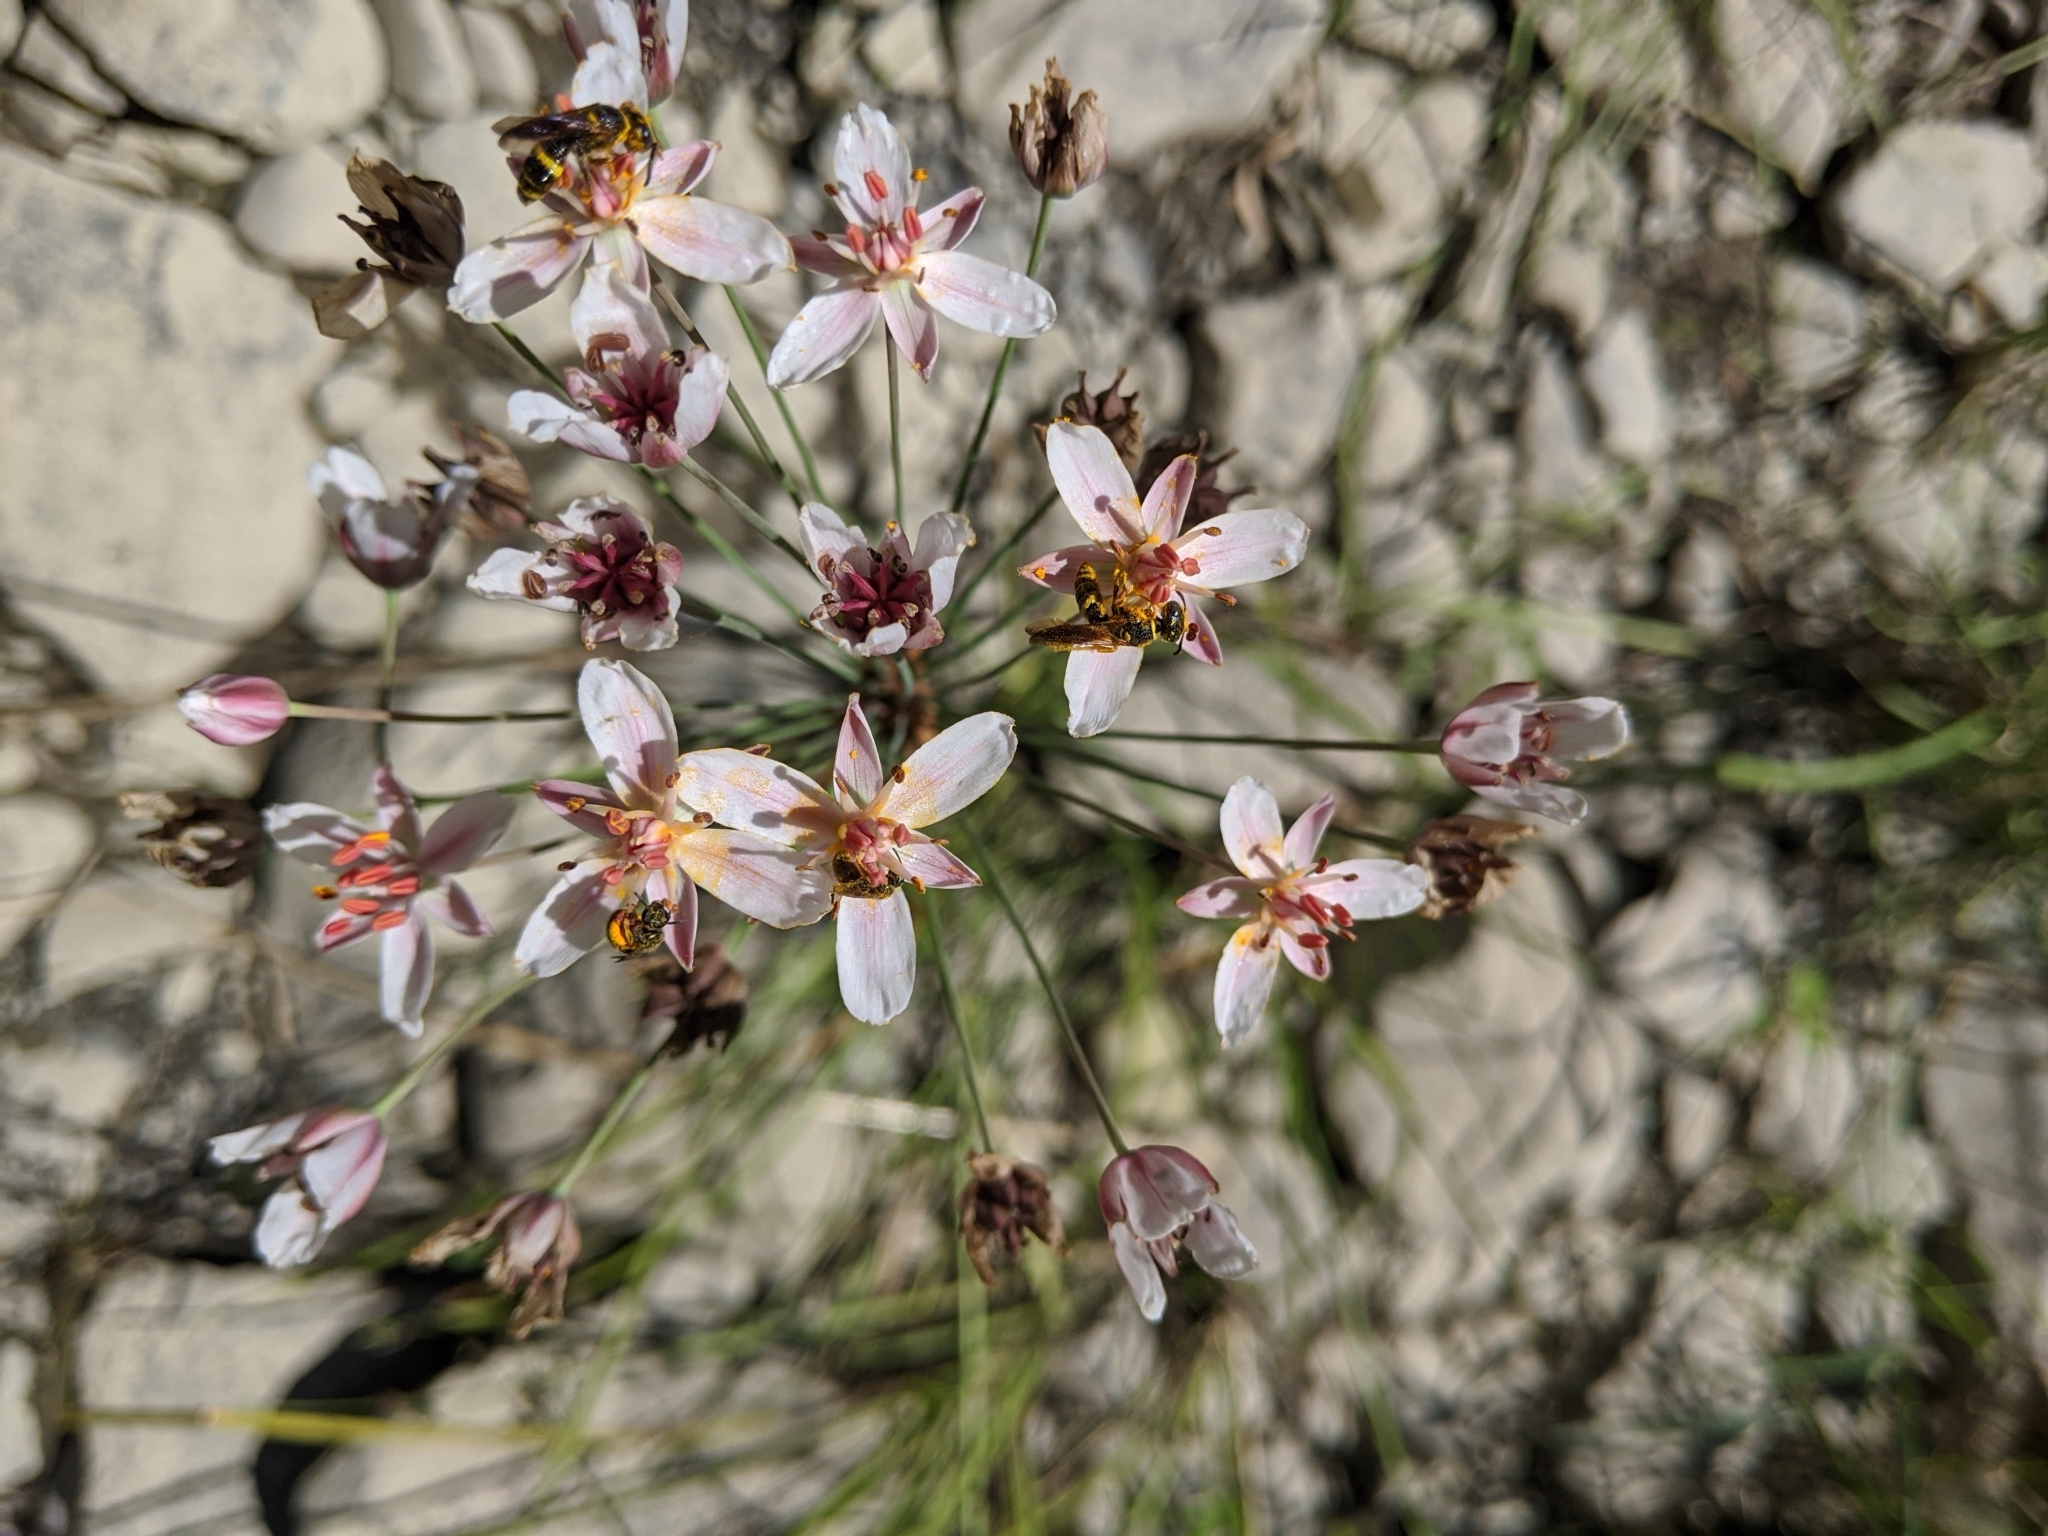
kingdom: Plantae
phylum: Tracheophyta
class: Liliopsida
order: Alismatales
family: Butomaceae
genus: Butomus
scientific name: Butomus umbellatus
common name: Flowering-rush
